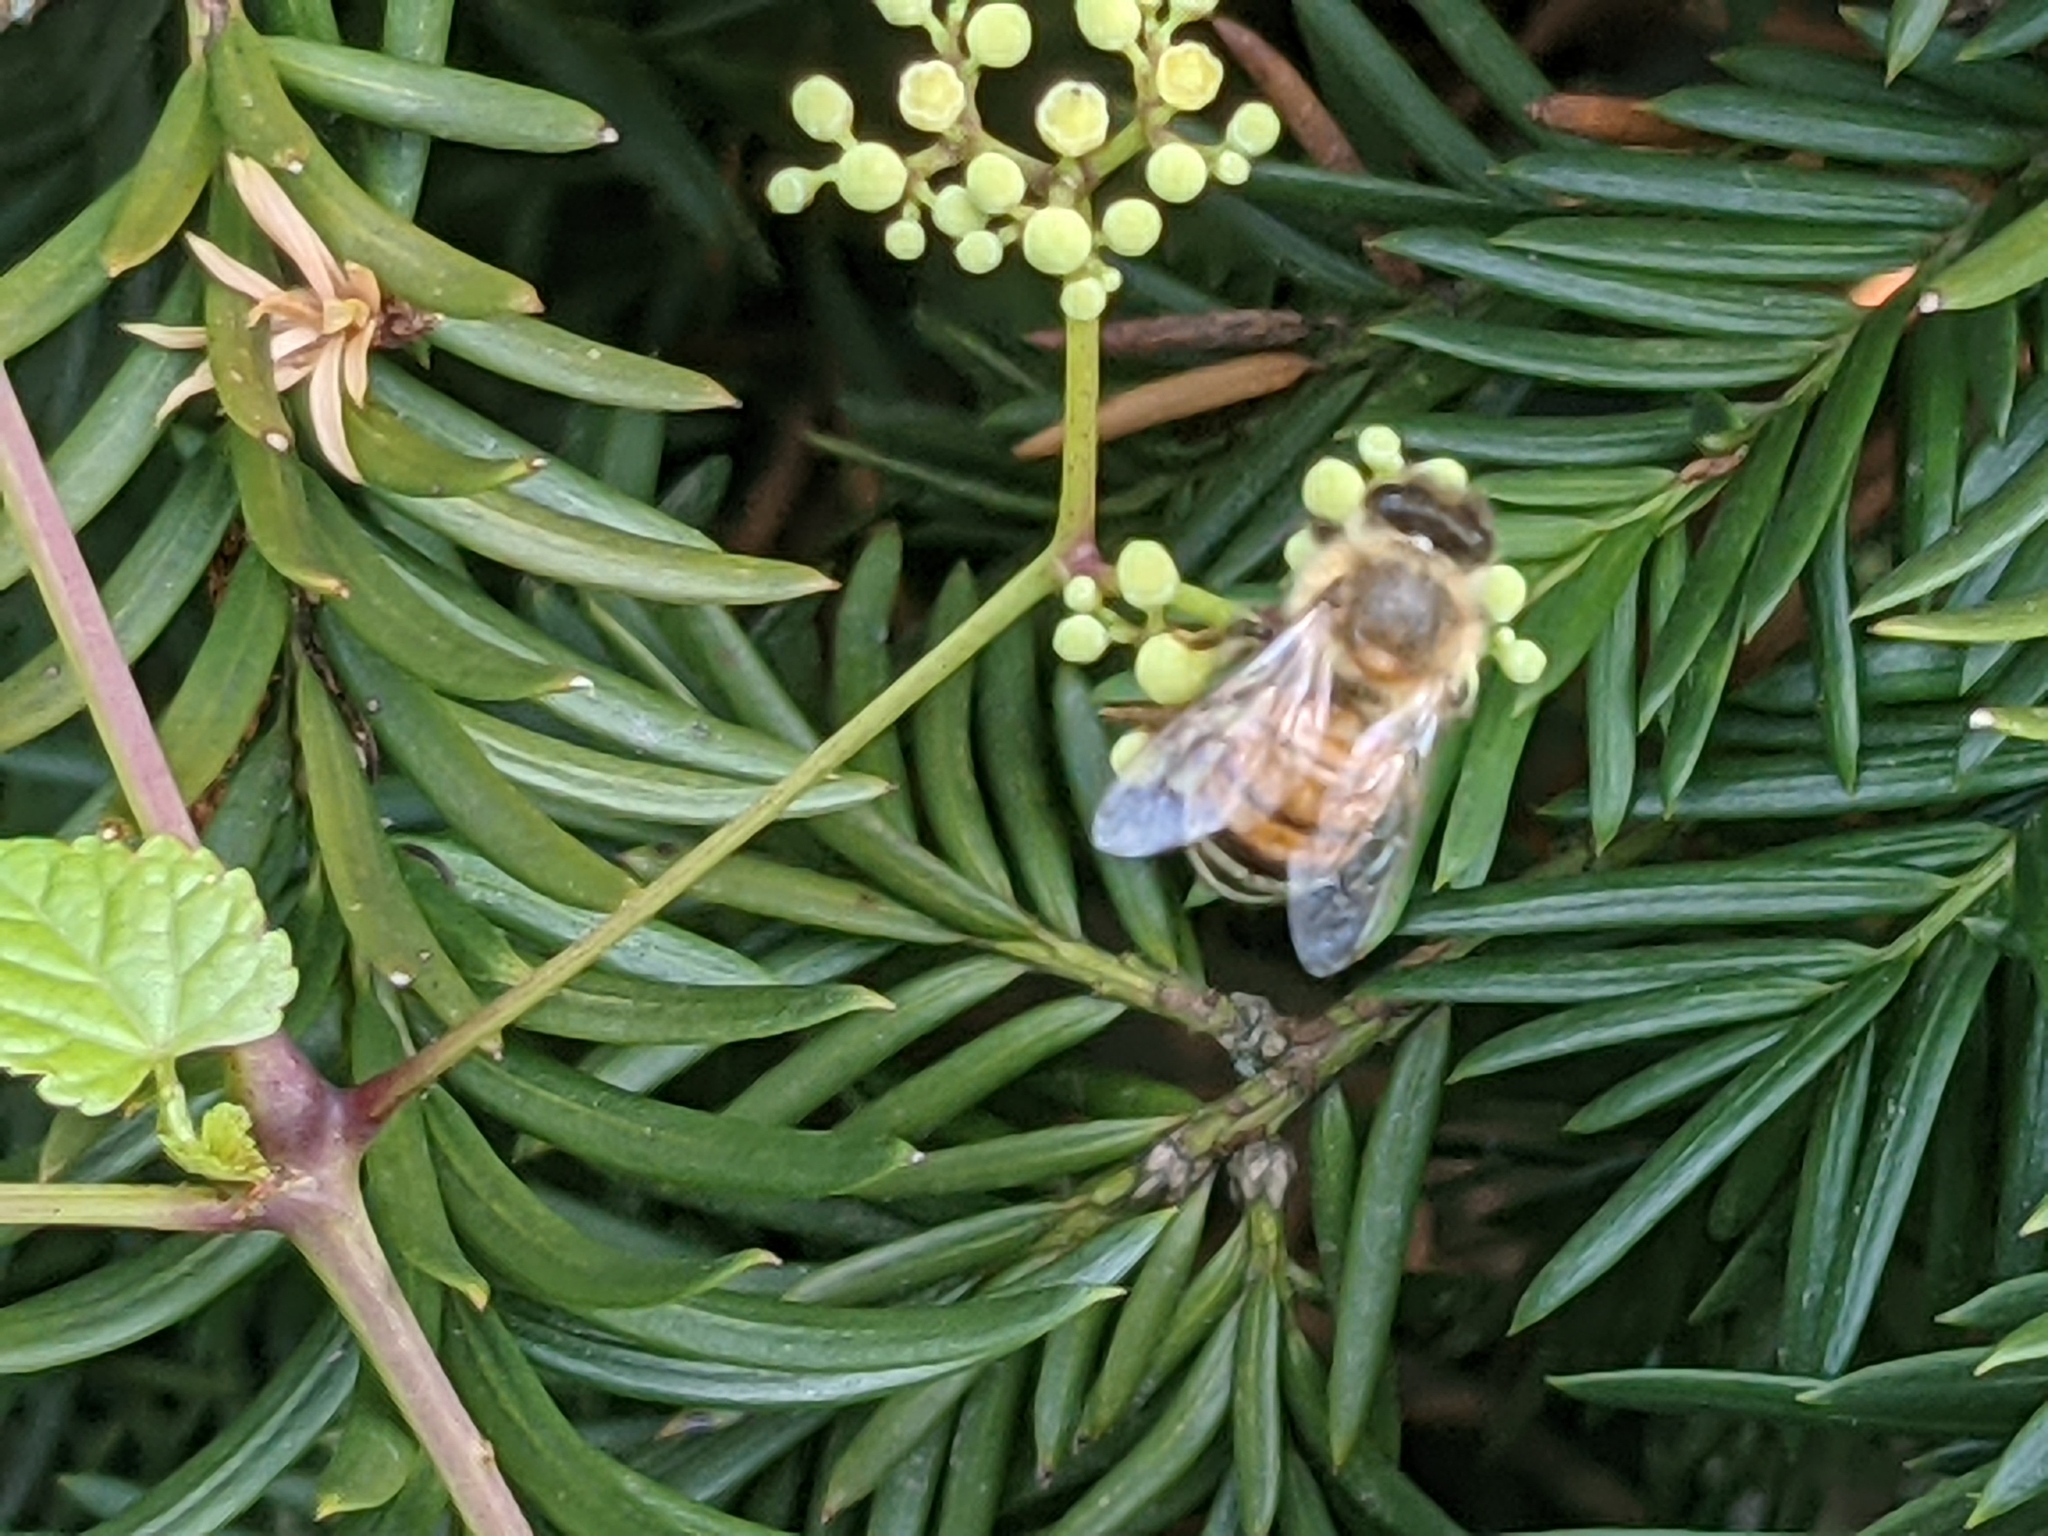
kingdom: Animalia
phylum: Arthropoda
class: Insecta
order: Hymenoptera
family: Apidae
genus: Apis
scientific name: Apis mellifera
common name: Honey bee
